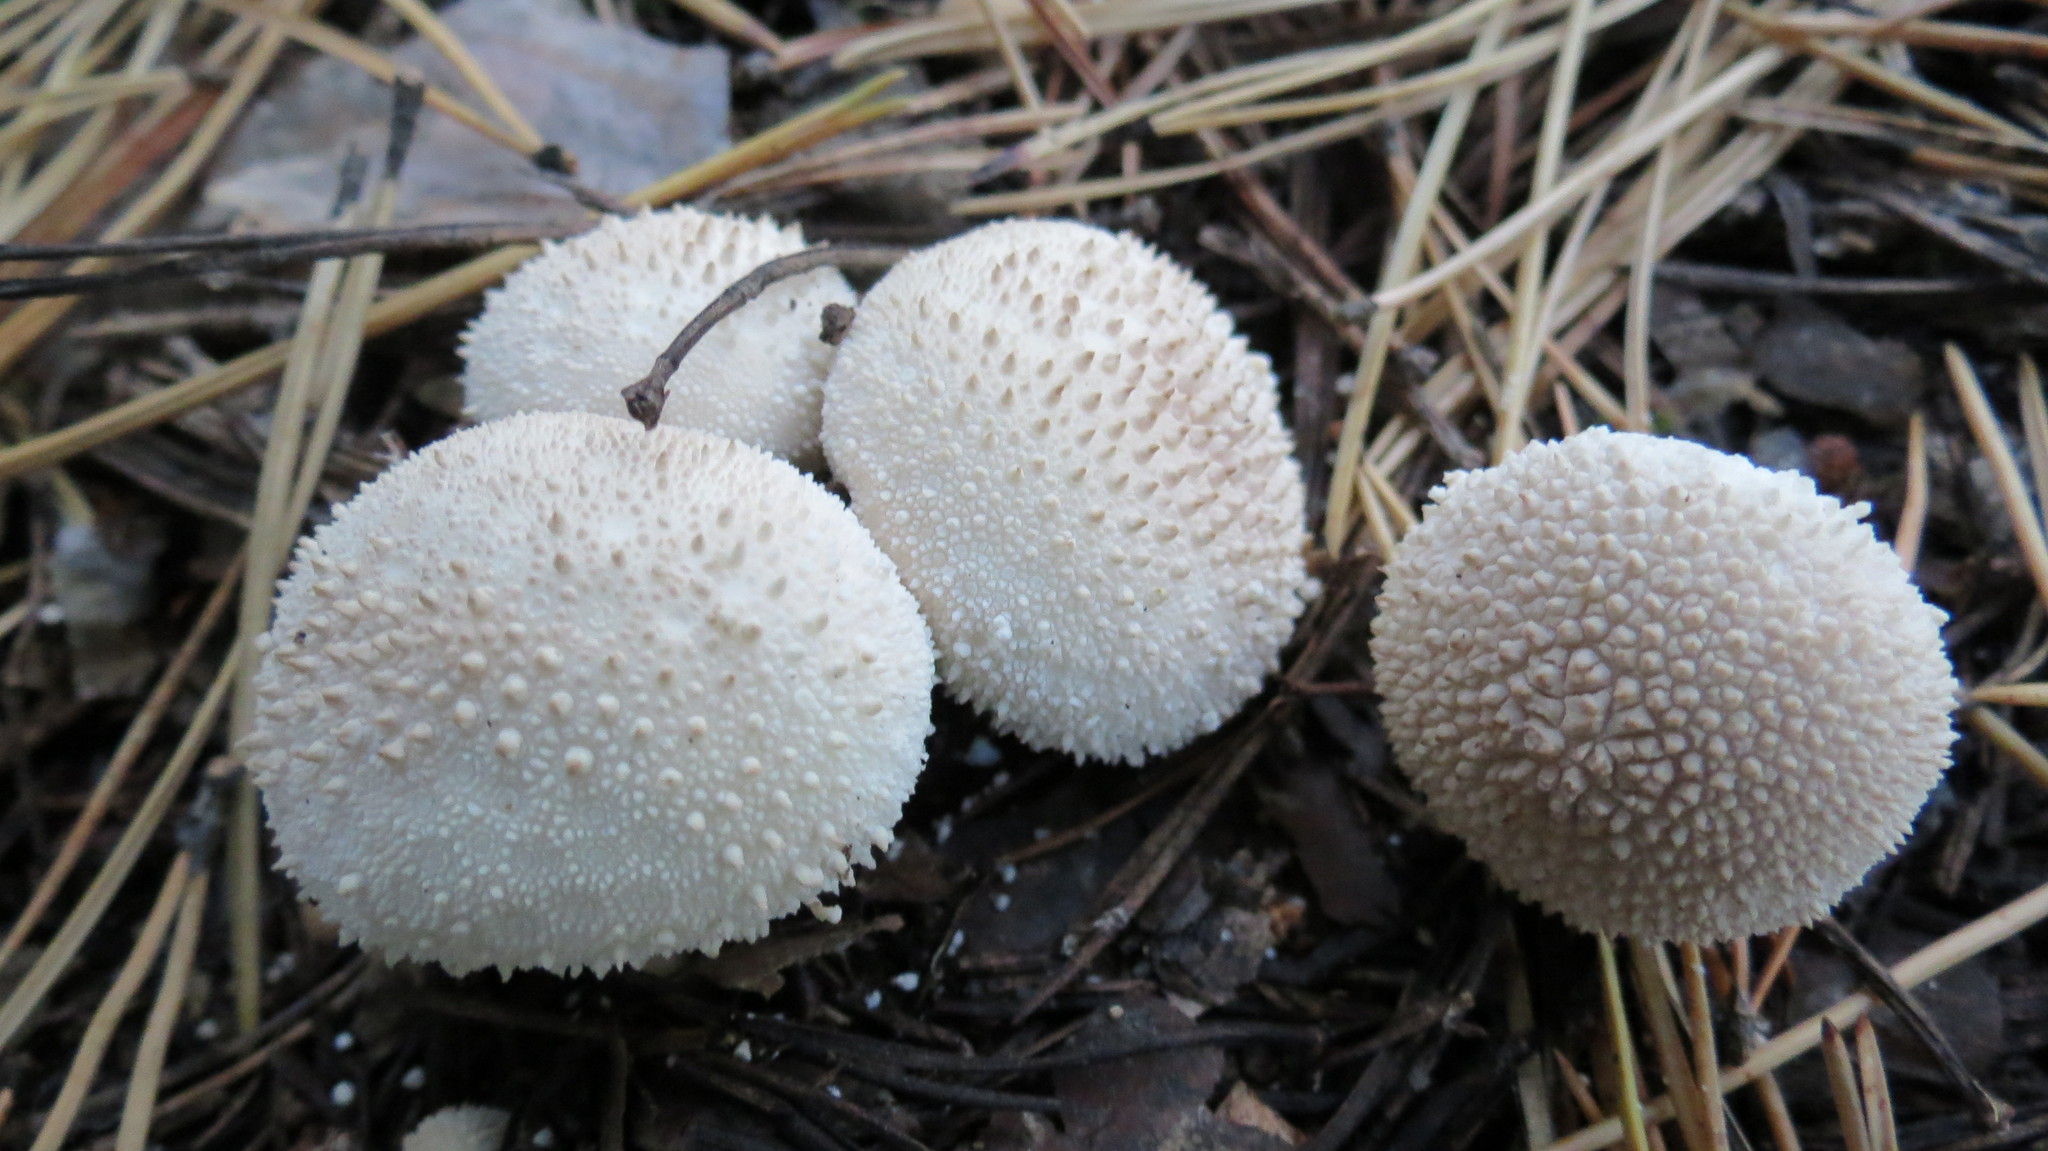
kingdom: Fungi
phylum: Basidiomycota
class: Agaricomycetes
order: Agaricales
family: Lycoperdaceae
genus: Lycoperdon
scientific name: Lycoperdon perlatum
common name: Common puffball
